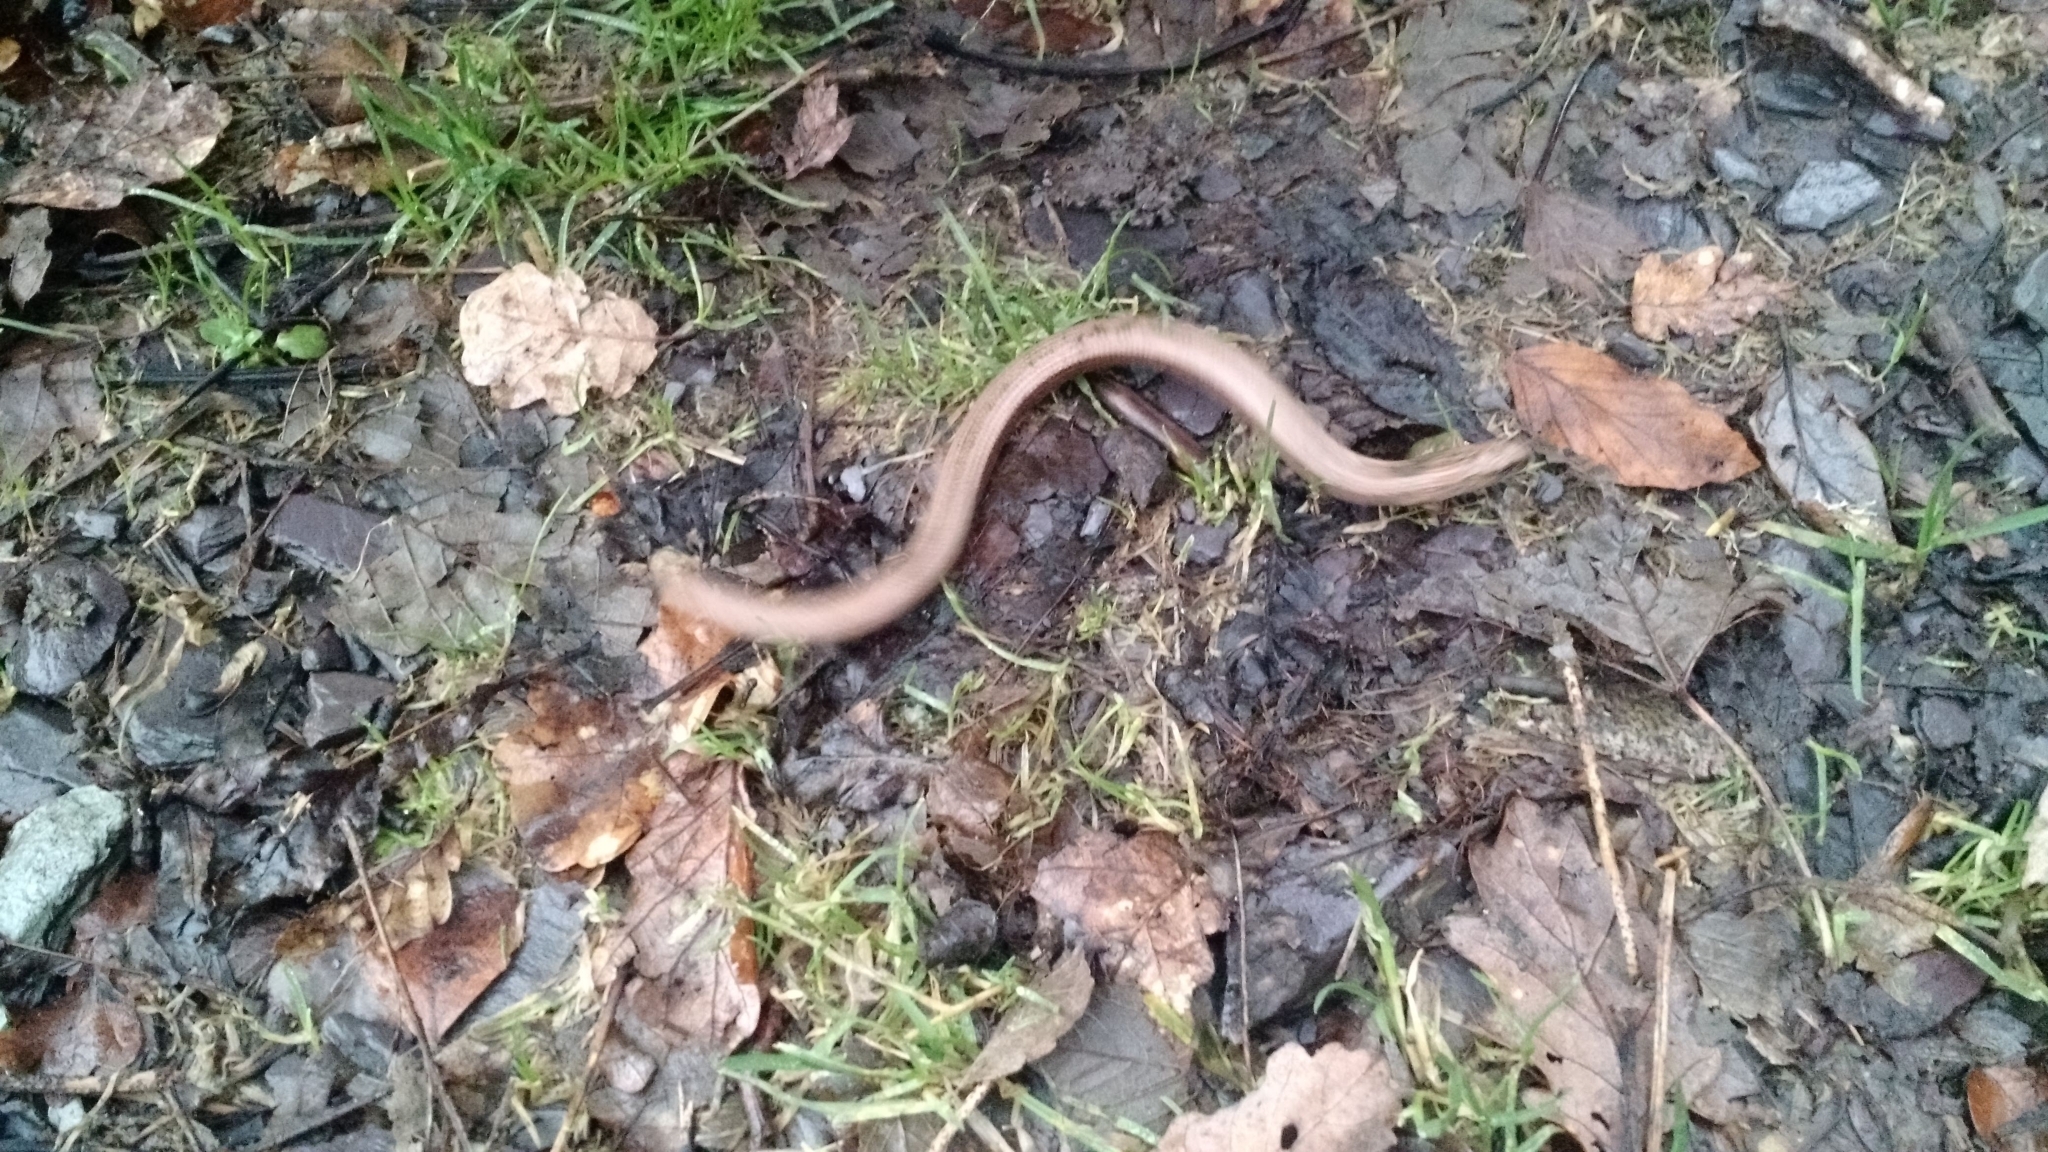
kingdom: Animalia
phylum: Chordata
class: Squamata
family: Anguidae
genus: Anguis
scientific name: Anguis fragilis
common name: Slow worm
